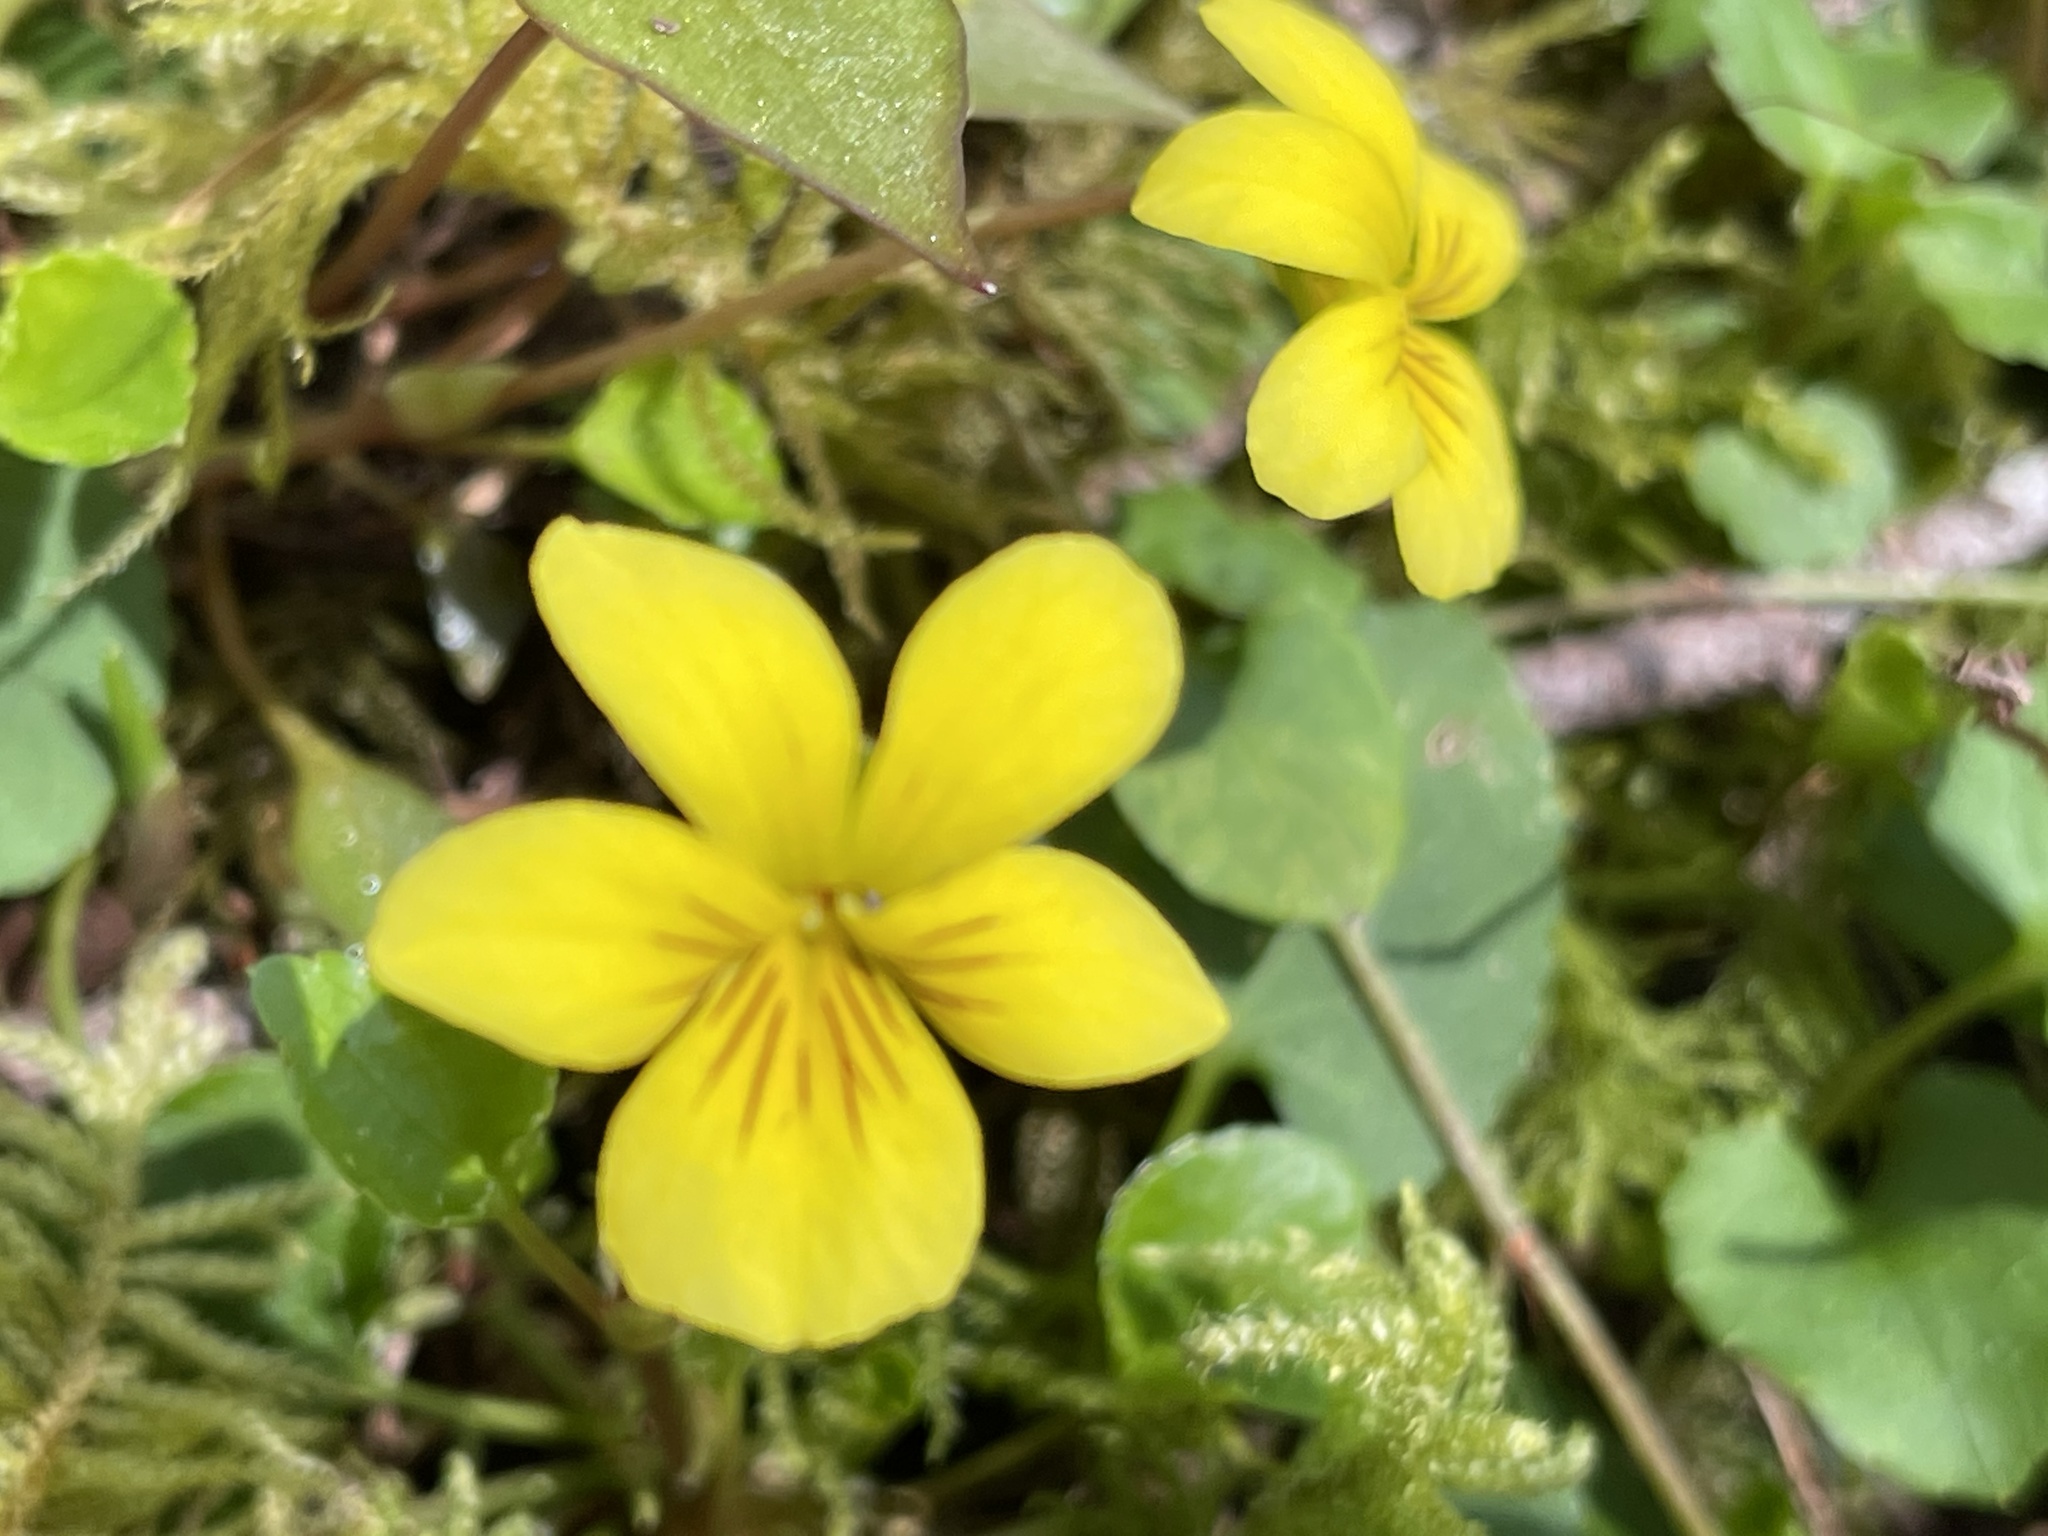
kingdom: Plantae
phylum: Tracheophyta
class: Magnoliopsida
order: Malpighiales
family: Violaceae
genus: Viola
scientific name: Viola sempervirens
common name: Evergreen violet
